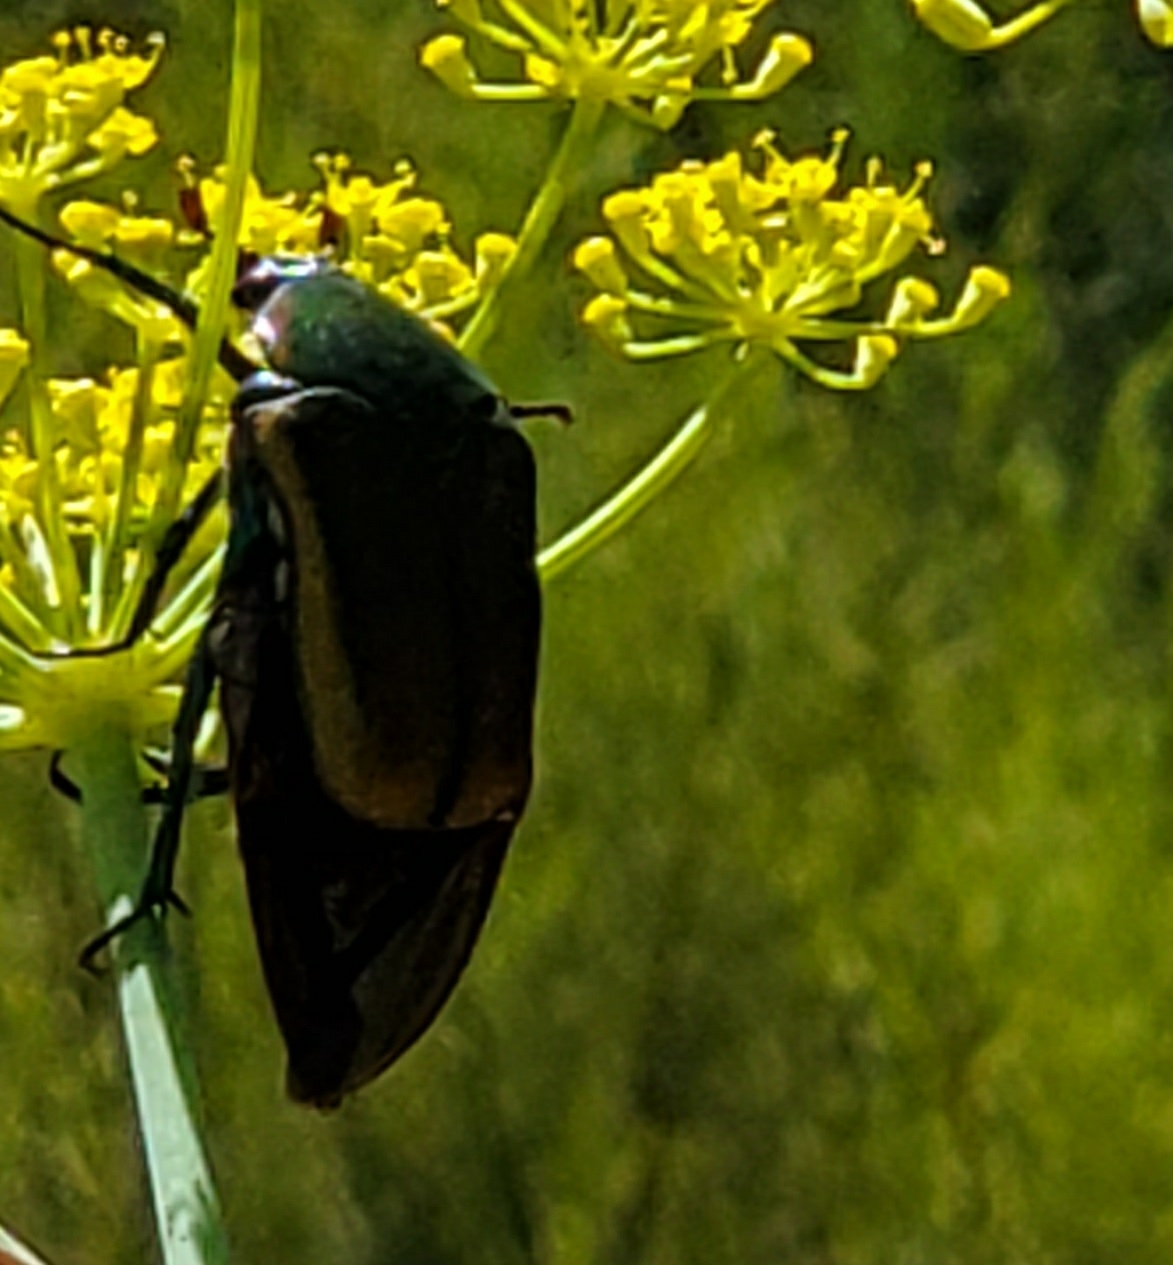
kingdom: Animalia
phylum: Arthropoda
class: Insecta
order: Coleoptera
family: Scarabaeidae
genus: Cotinis
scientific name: Cotinis mutabilis
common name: Figeater beetle
